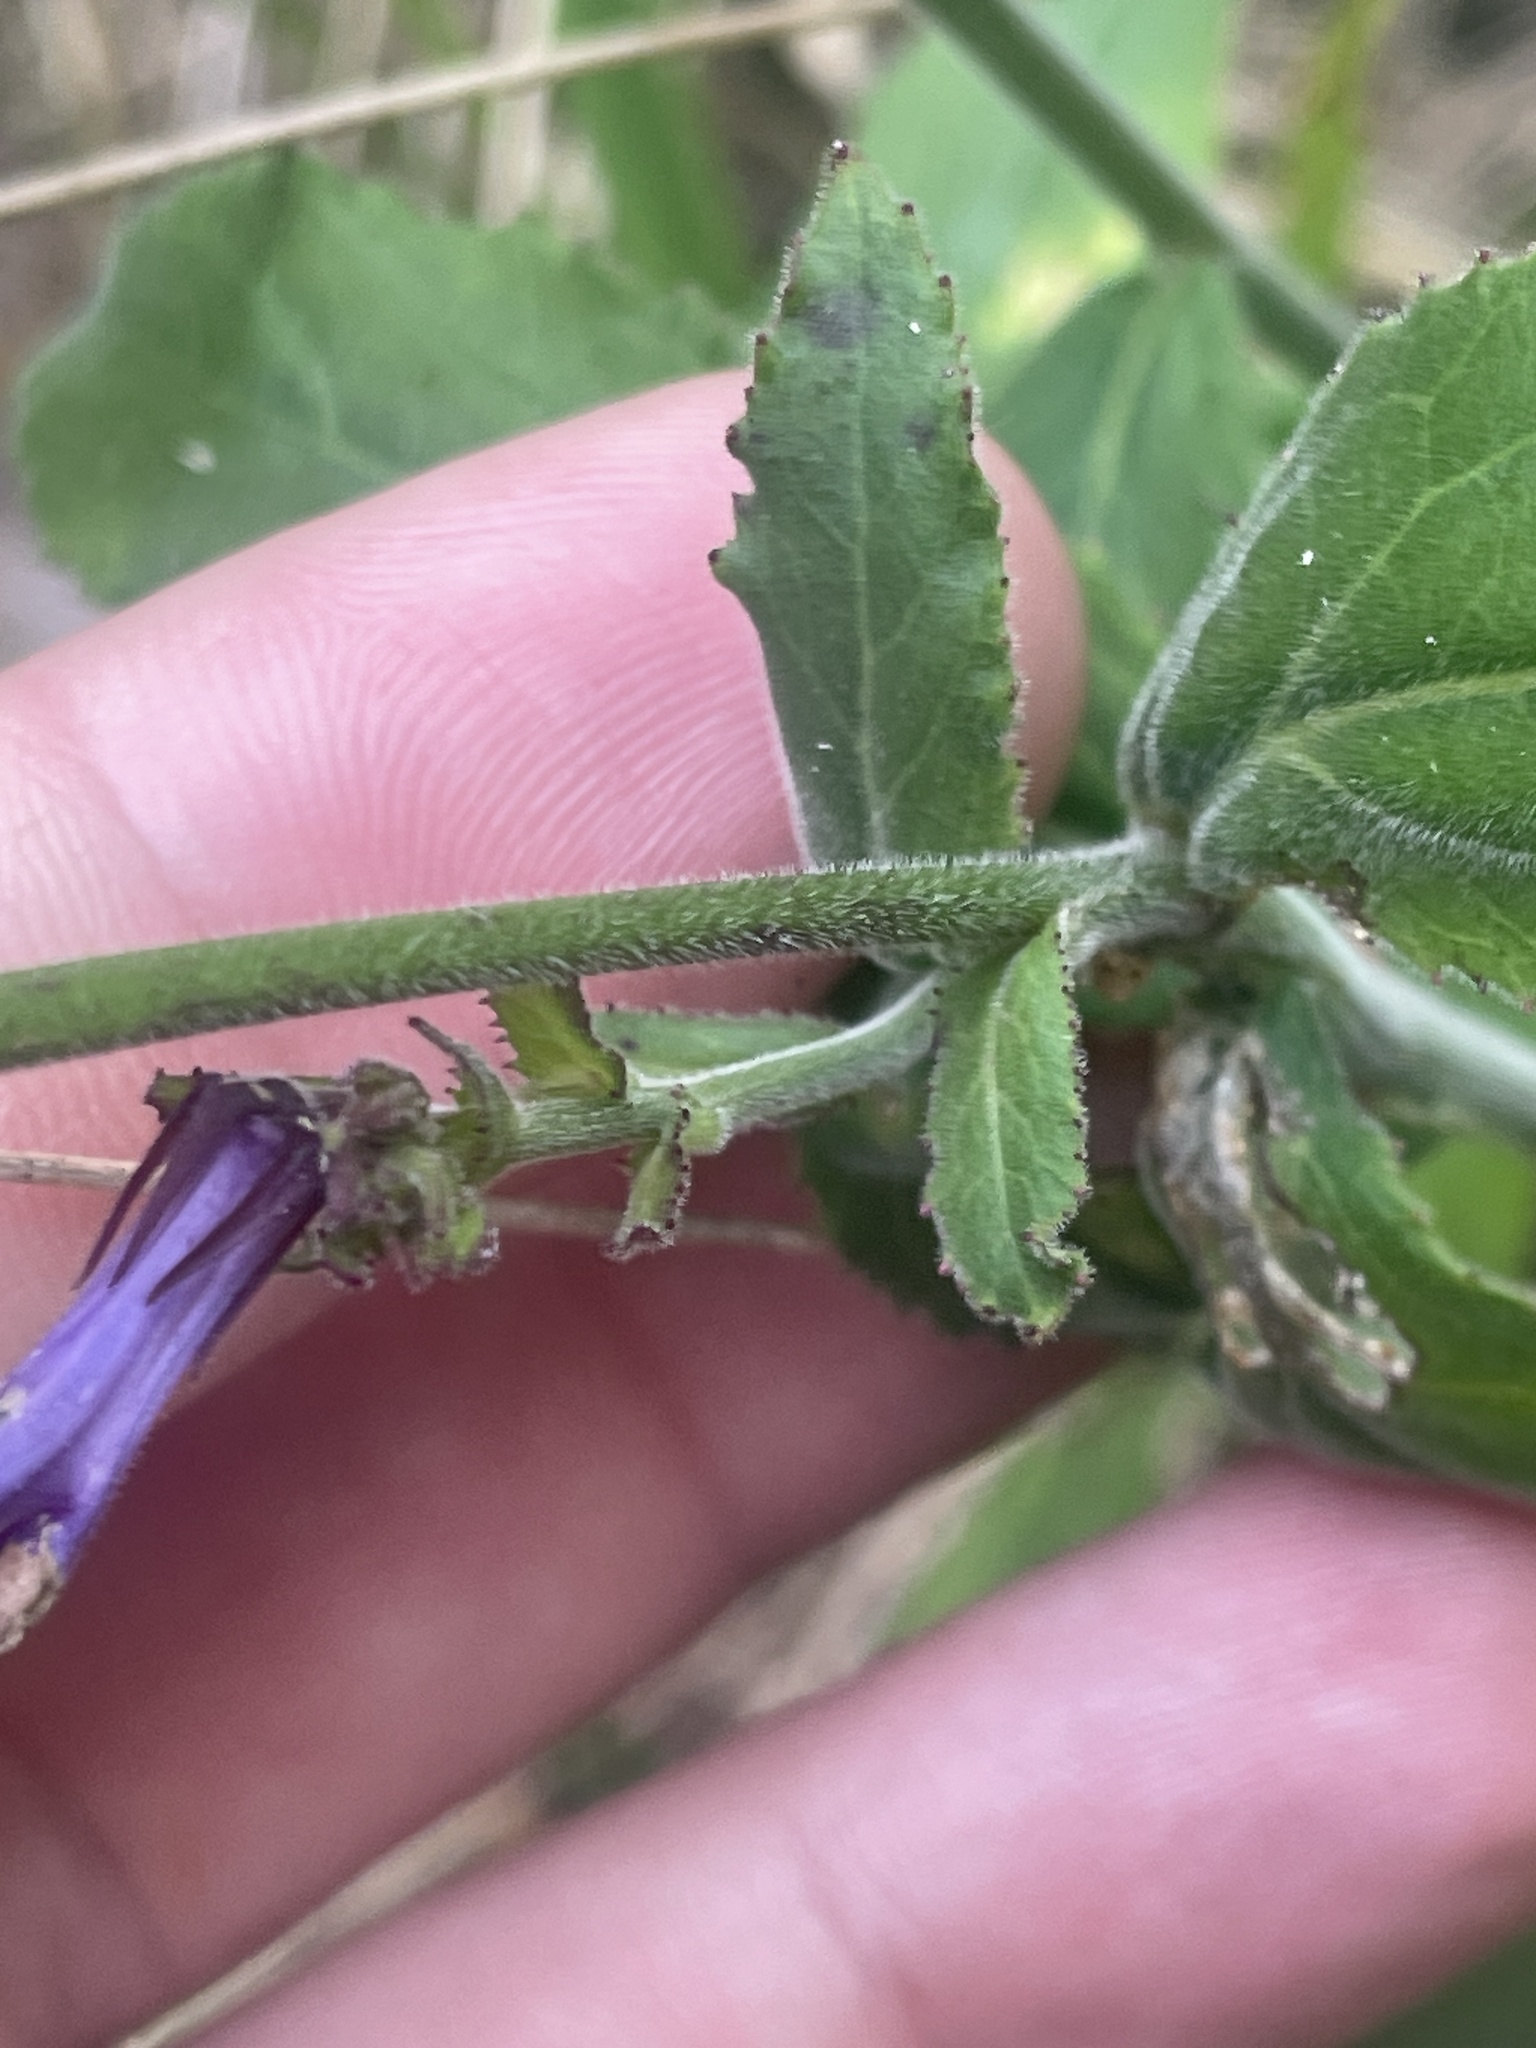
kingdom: Plantae
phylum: Tracheophyta
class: Magnoliopsida
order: Asterales
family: Campanulaceae
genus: Lobelia
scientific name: Lobelia puberula
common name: Purple dewdrop
